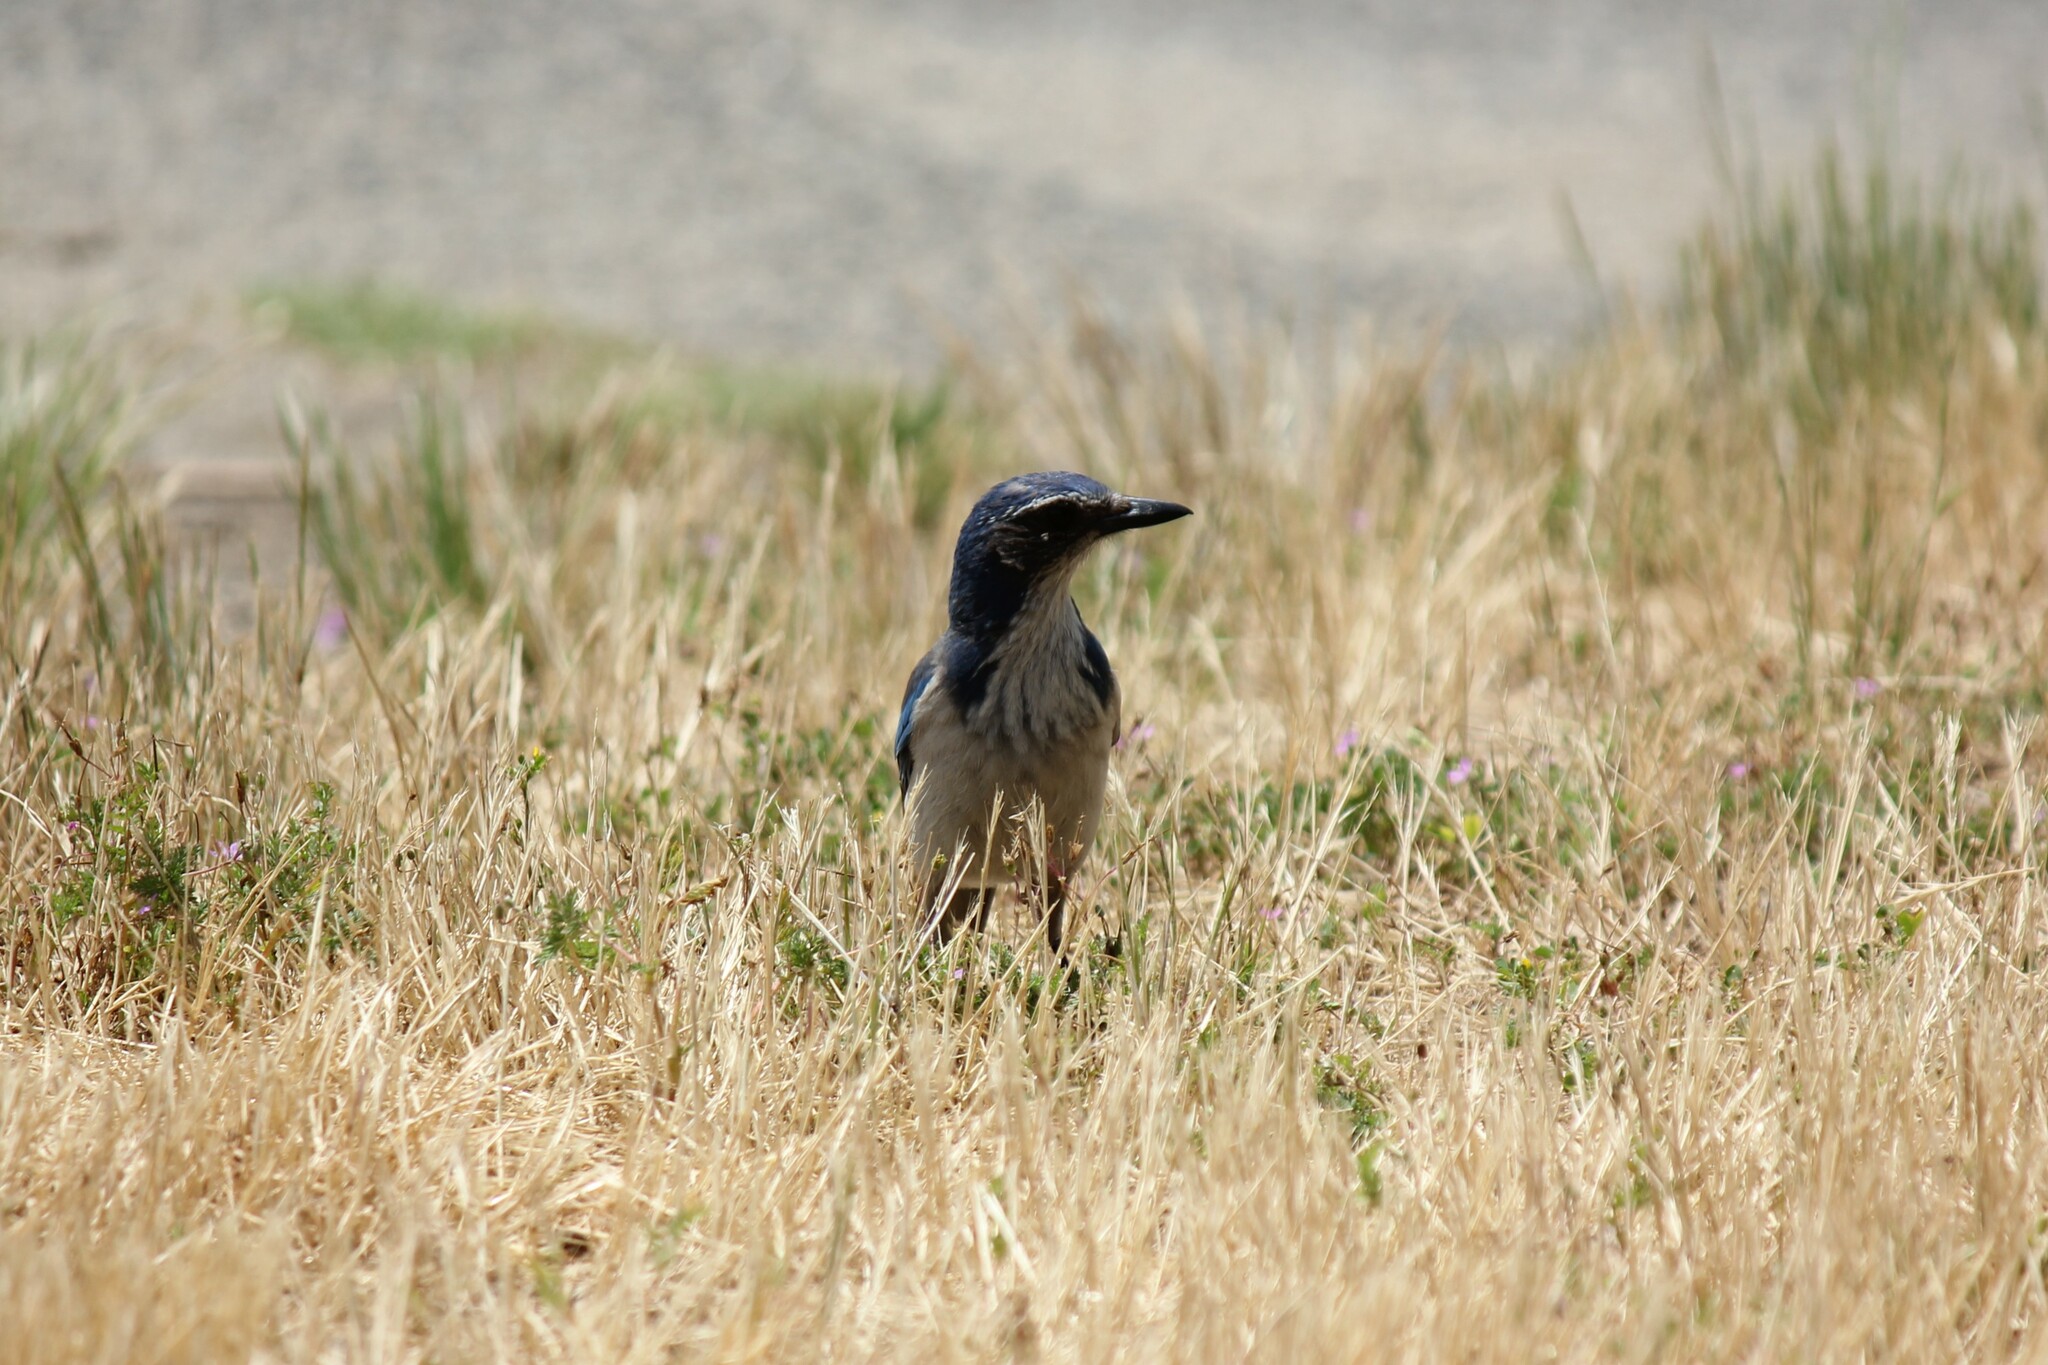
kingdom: Animalia
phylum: Chordata
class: Aves
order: Passeriformes
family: Corvidae
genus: Aphelocoma
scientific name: Aphelocoma californica
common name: California scrub-jay
